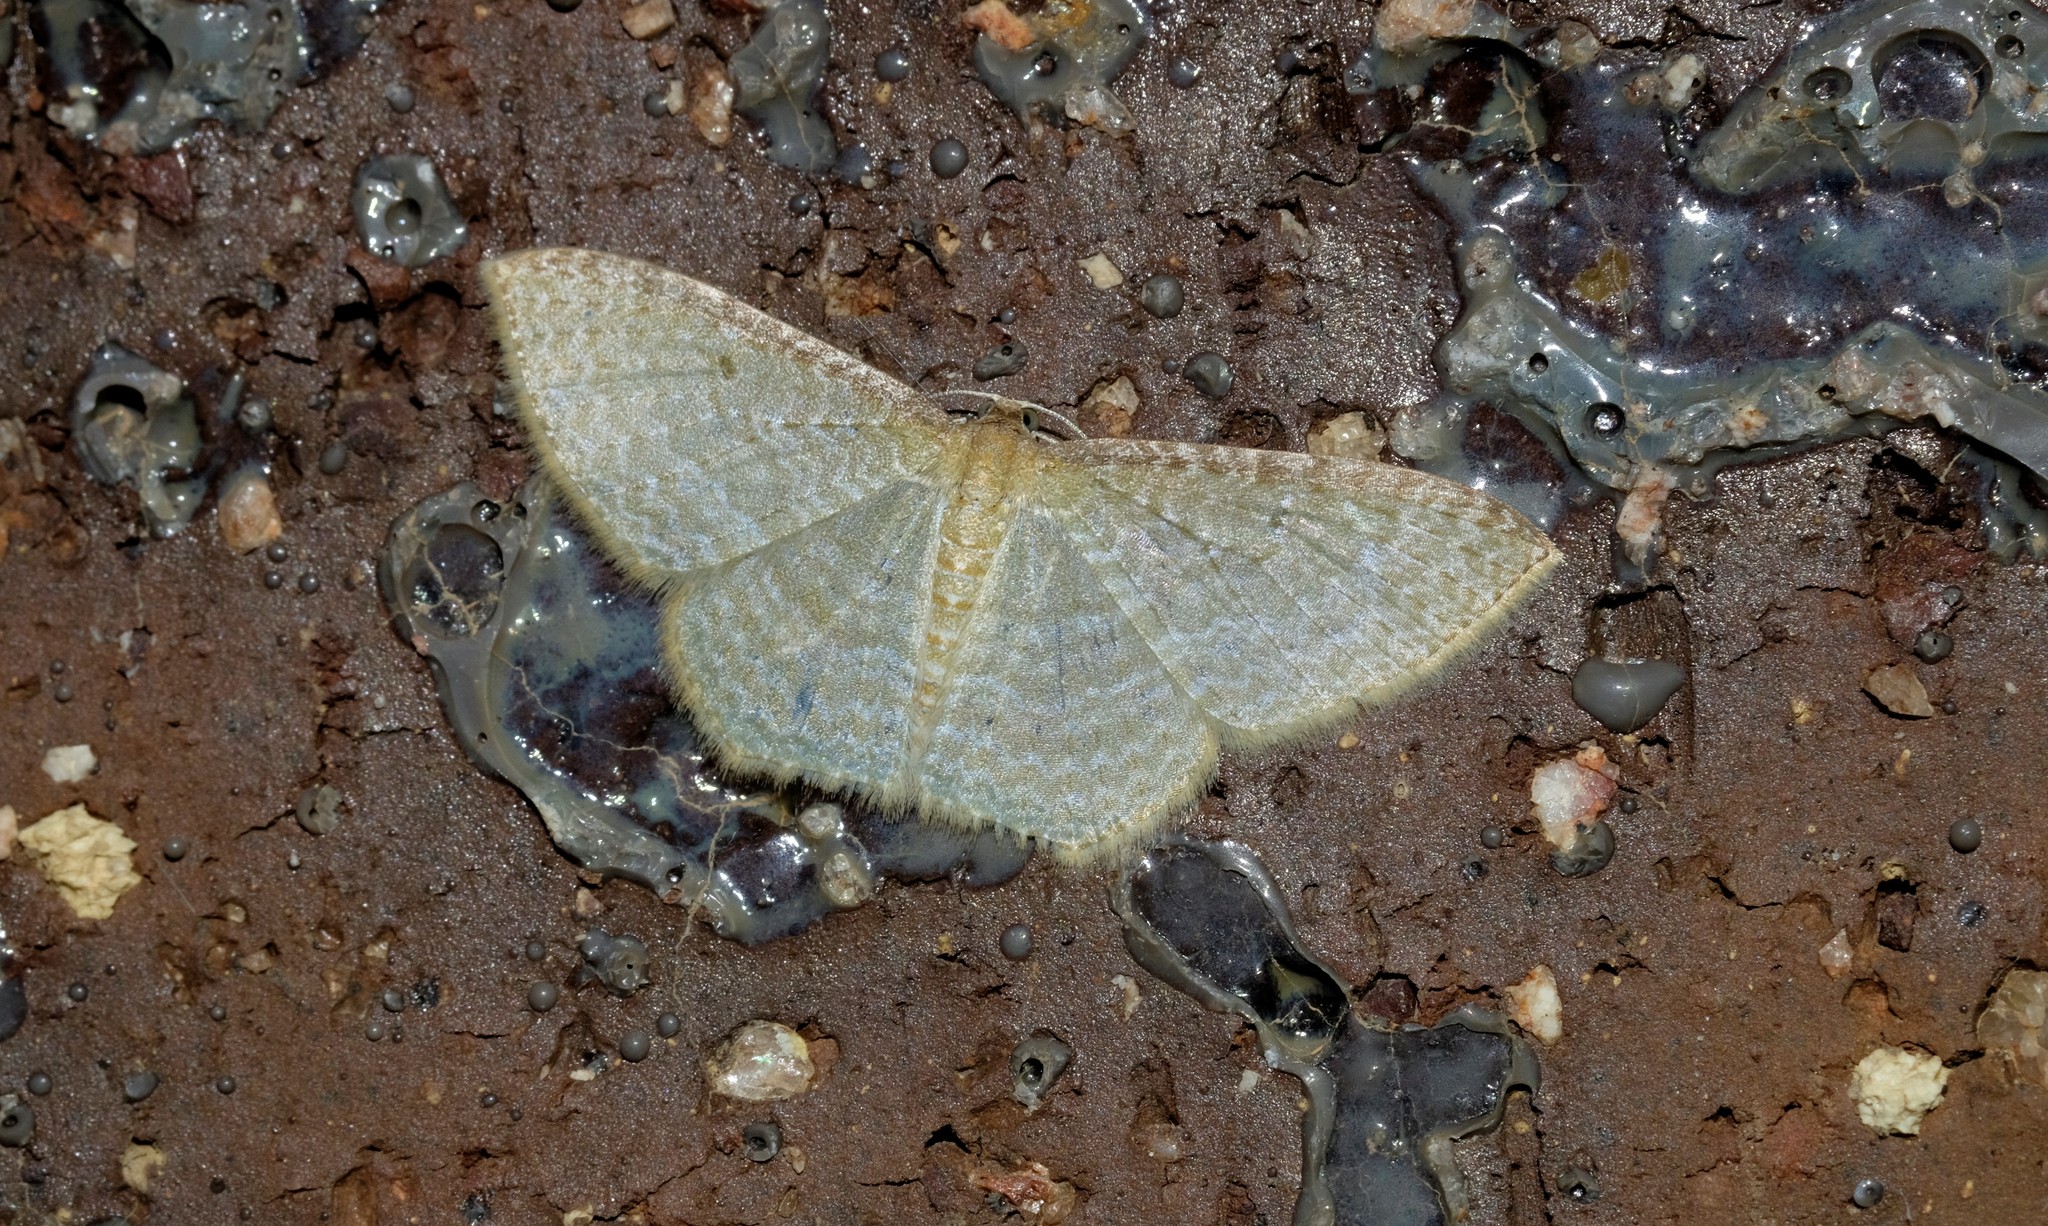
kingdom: Animalia
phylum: Arthropoda
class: Insecta
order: Lepidoptera
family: Geometridae
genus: Poecilasthena
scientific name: Poecilasthena pulchraria
